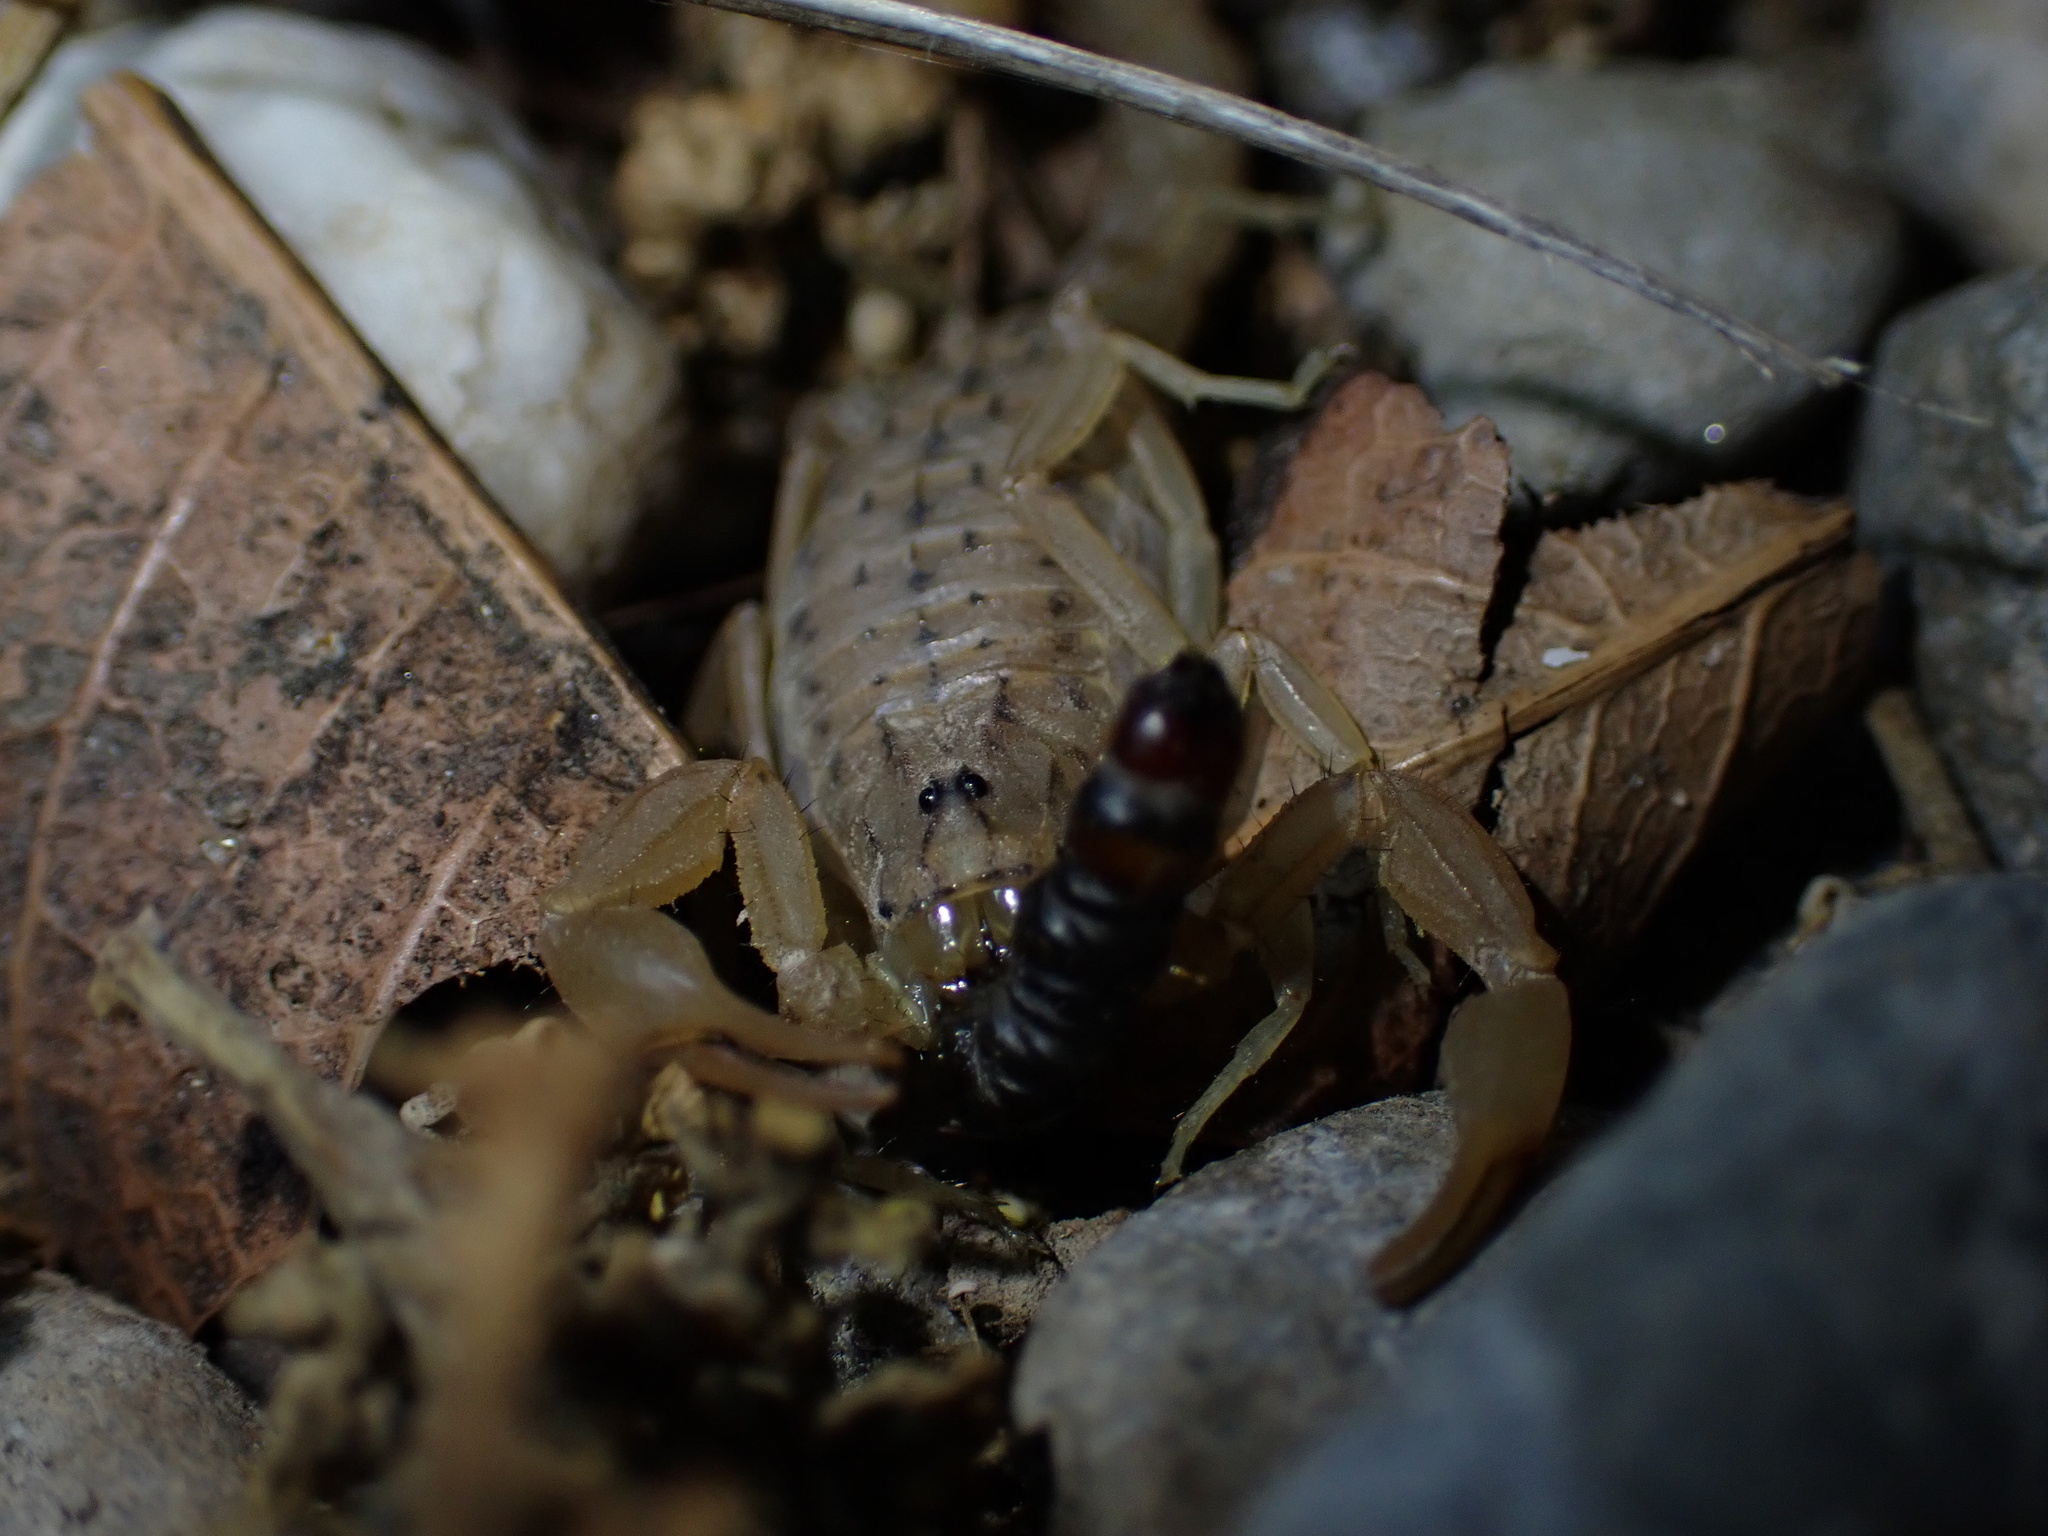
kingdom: Animalia
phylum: Arthropoda
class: Arachnida
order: Scorpiones
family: Buthidae
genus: Mesobuthus
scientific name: Mesobuthus mirshamsii
